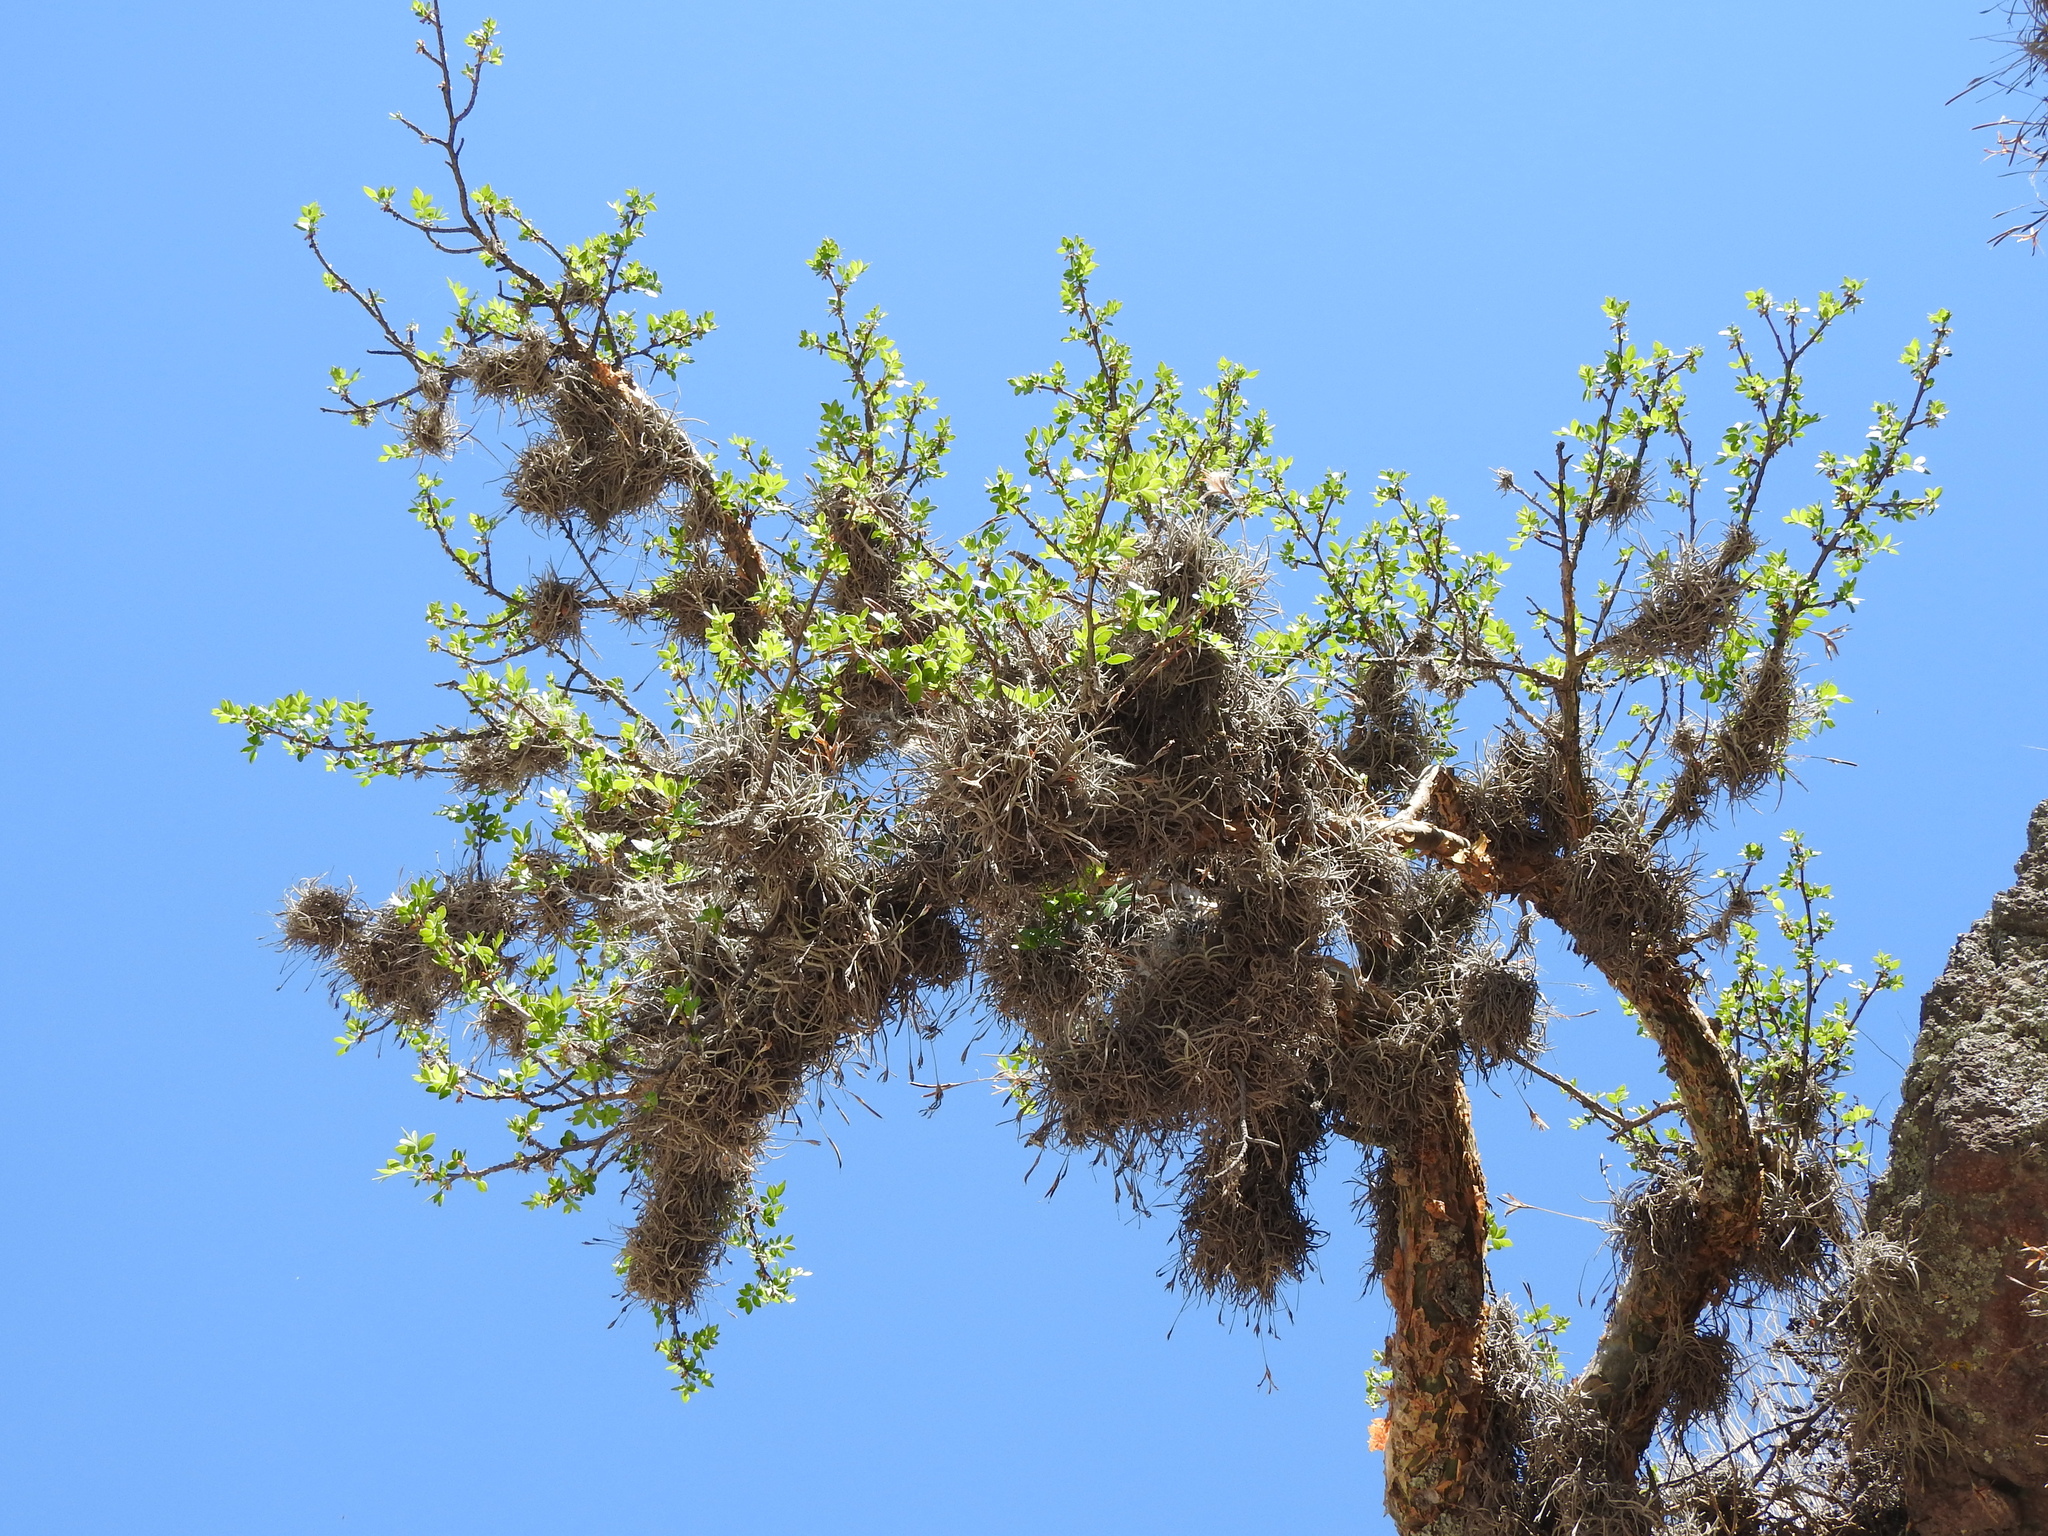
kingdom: Plantae
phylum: Tracheophyta
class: Liliopsida
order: Poales
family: Bromeliaceae
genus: Tillandsia
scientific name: Tillandsia recurvata
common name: Small ballmoss
